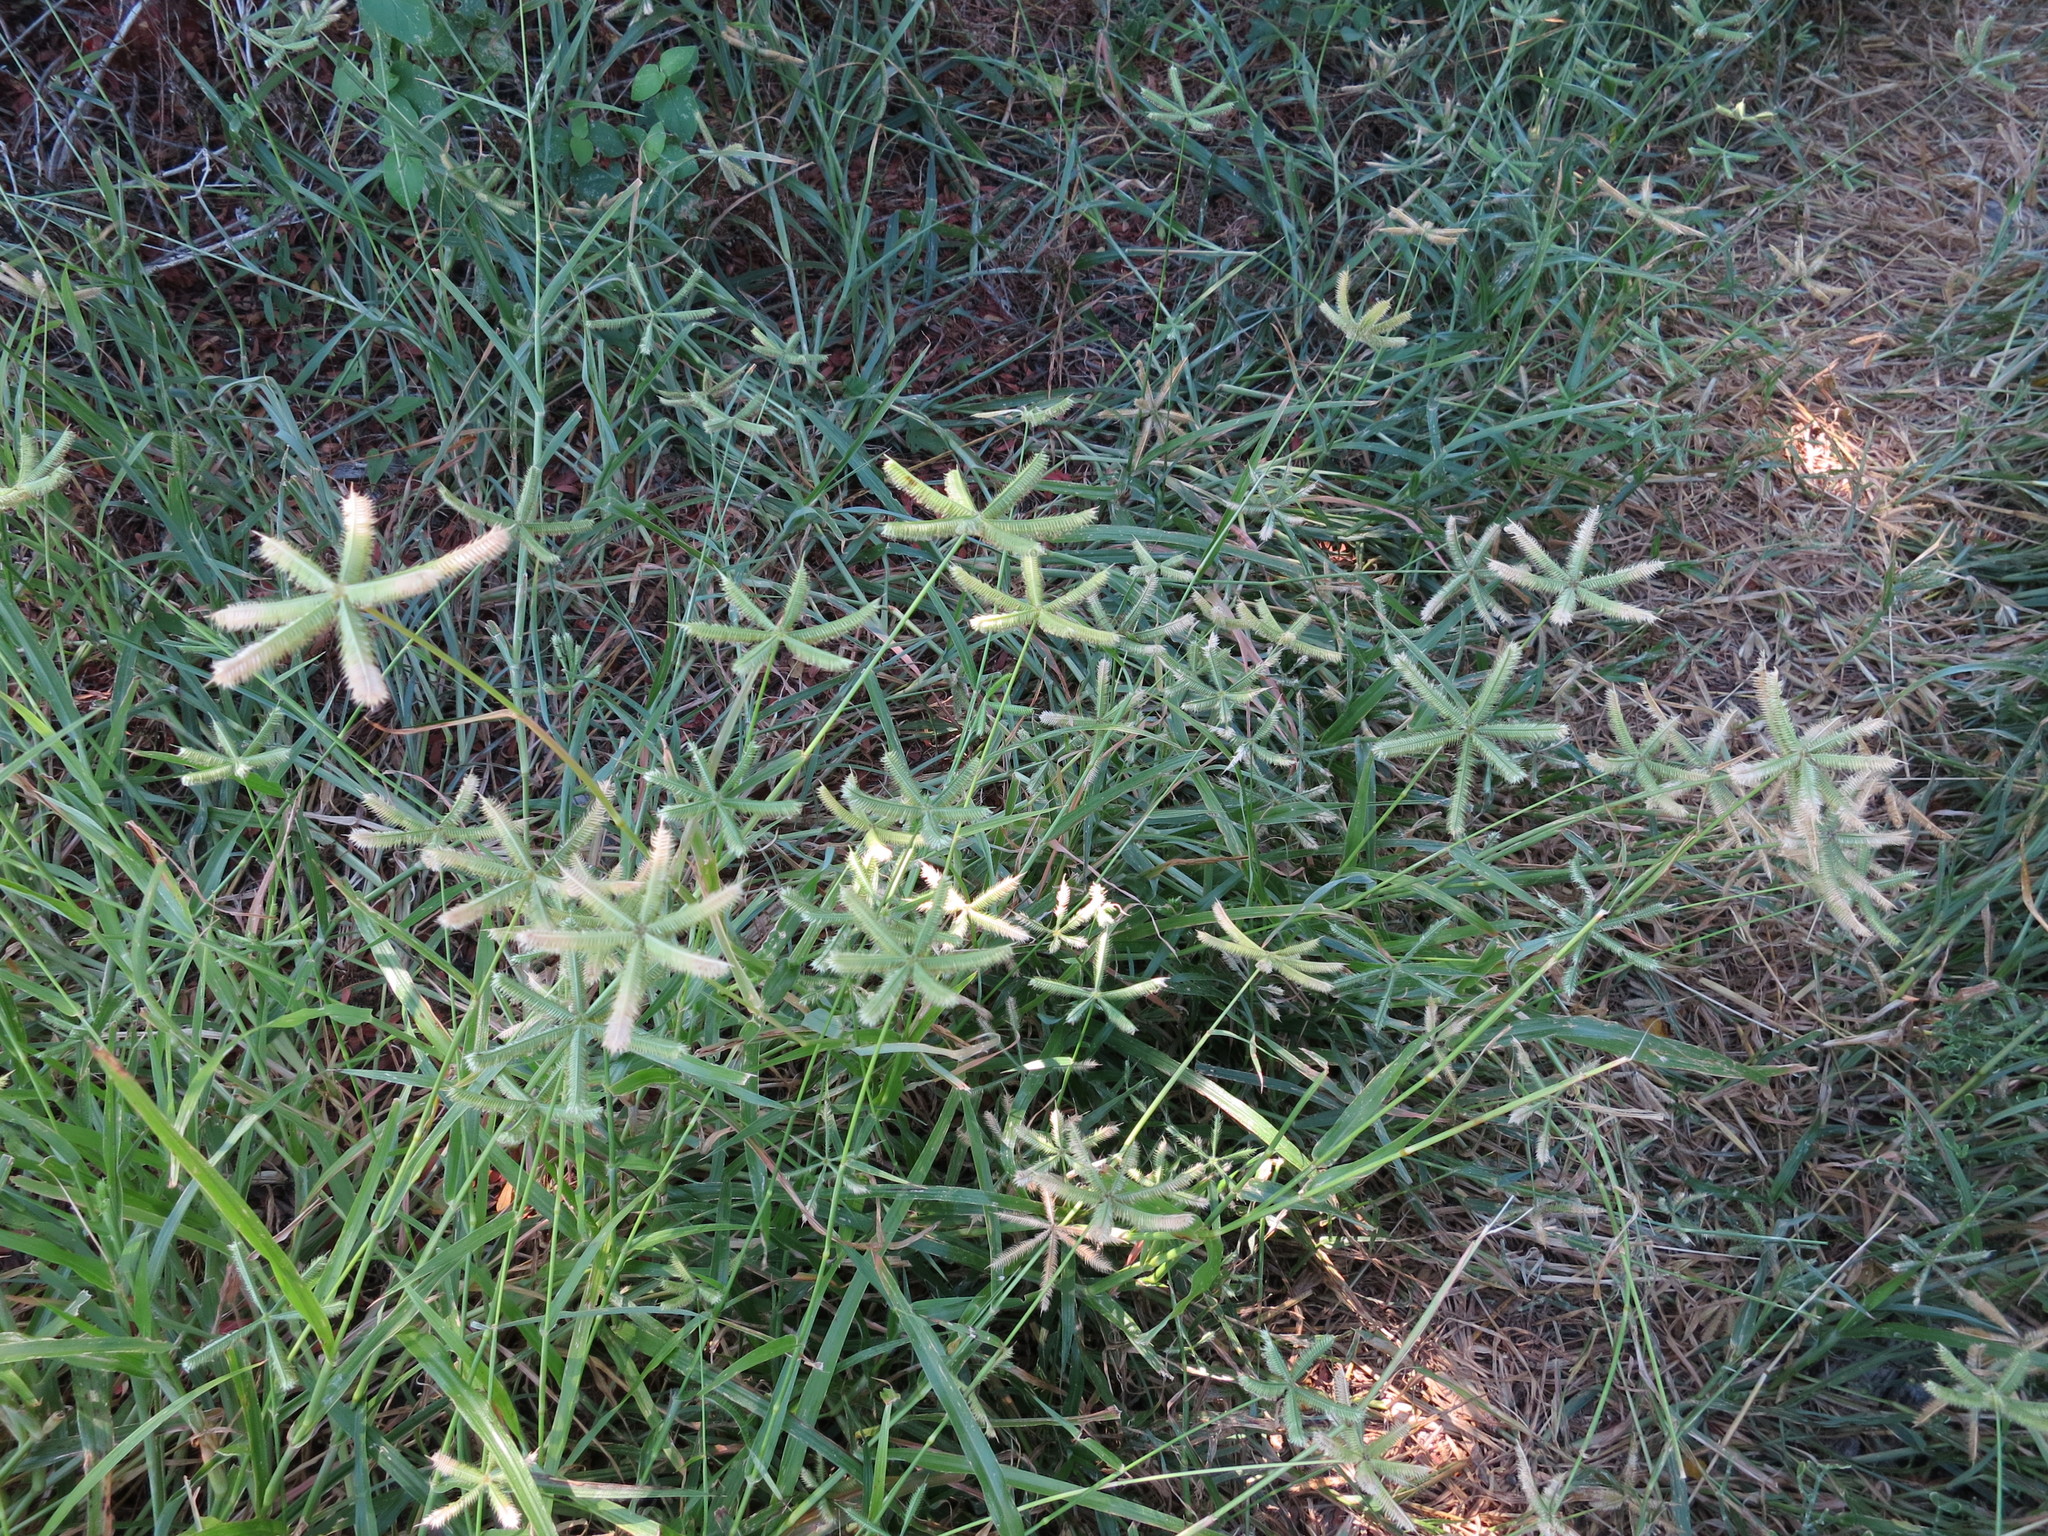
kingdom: Plantae
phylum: Tracheophyta
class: Liliopsida
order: Poales
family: Poaceae
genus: Dactyloctenium
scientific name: Dactyloctenium aegyptium
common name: Egyptian grass
